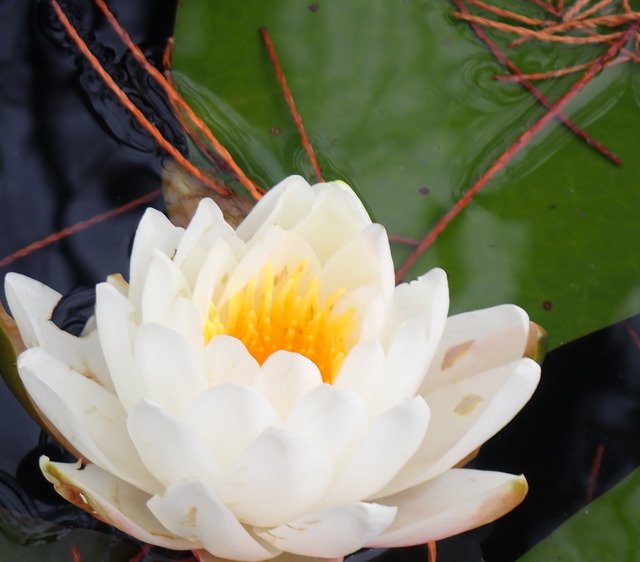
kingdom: Plantae
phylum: Tracheophyta
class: Magnoliopsida
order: Nymphaeales
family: Nymphaeaceae
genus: Nymphaea
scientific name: Nymphaea odorata
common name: Fragrant water-lily
